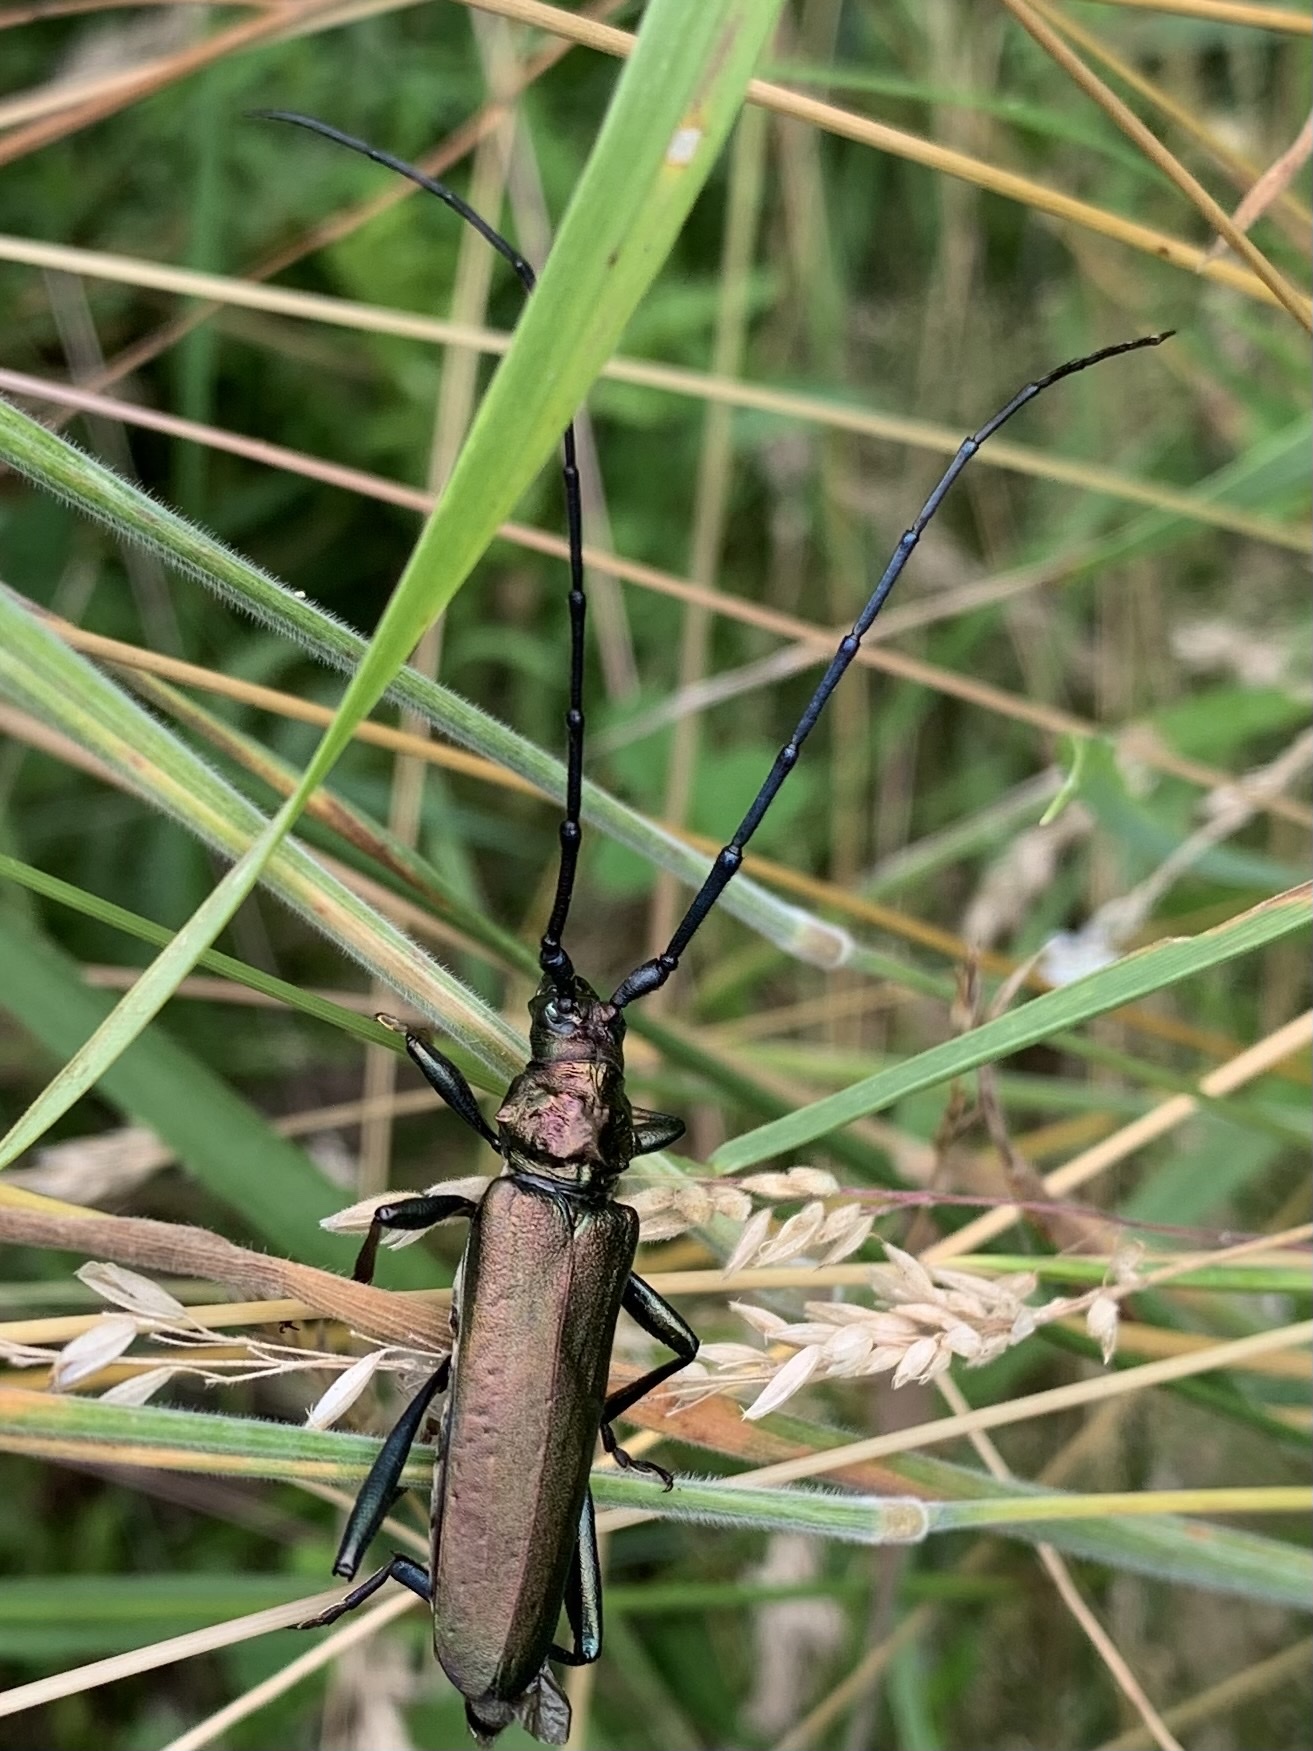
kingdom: Animalia
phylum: Arthropoda
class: Insecta
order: Coleoptera
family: Cerambycidae
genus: Aromia
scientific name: Aromia moschata
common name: Musk beetle
